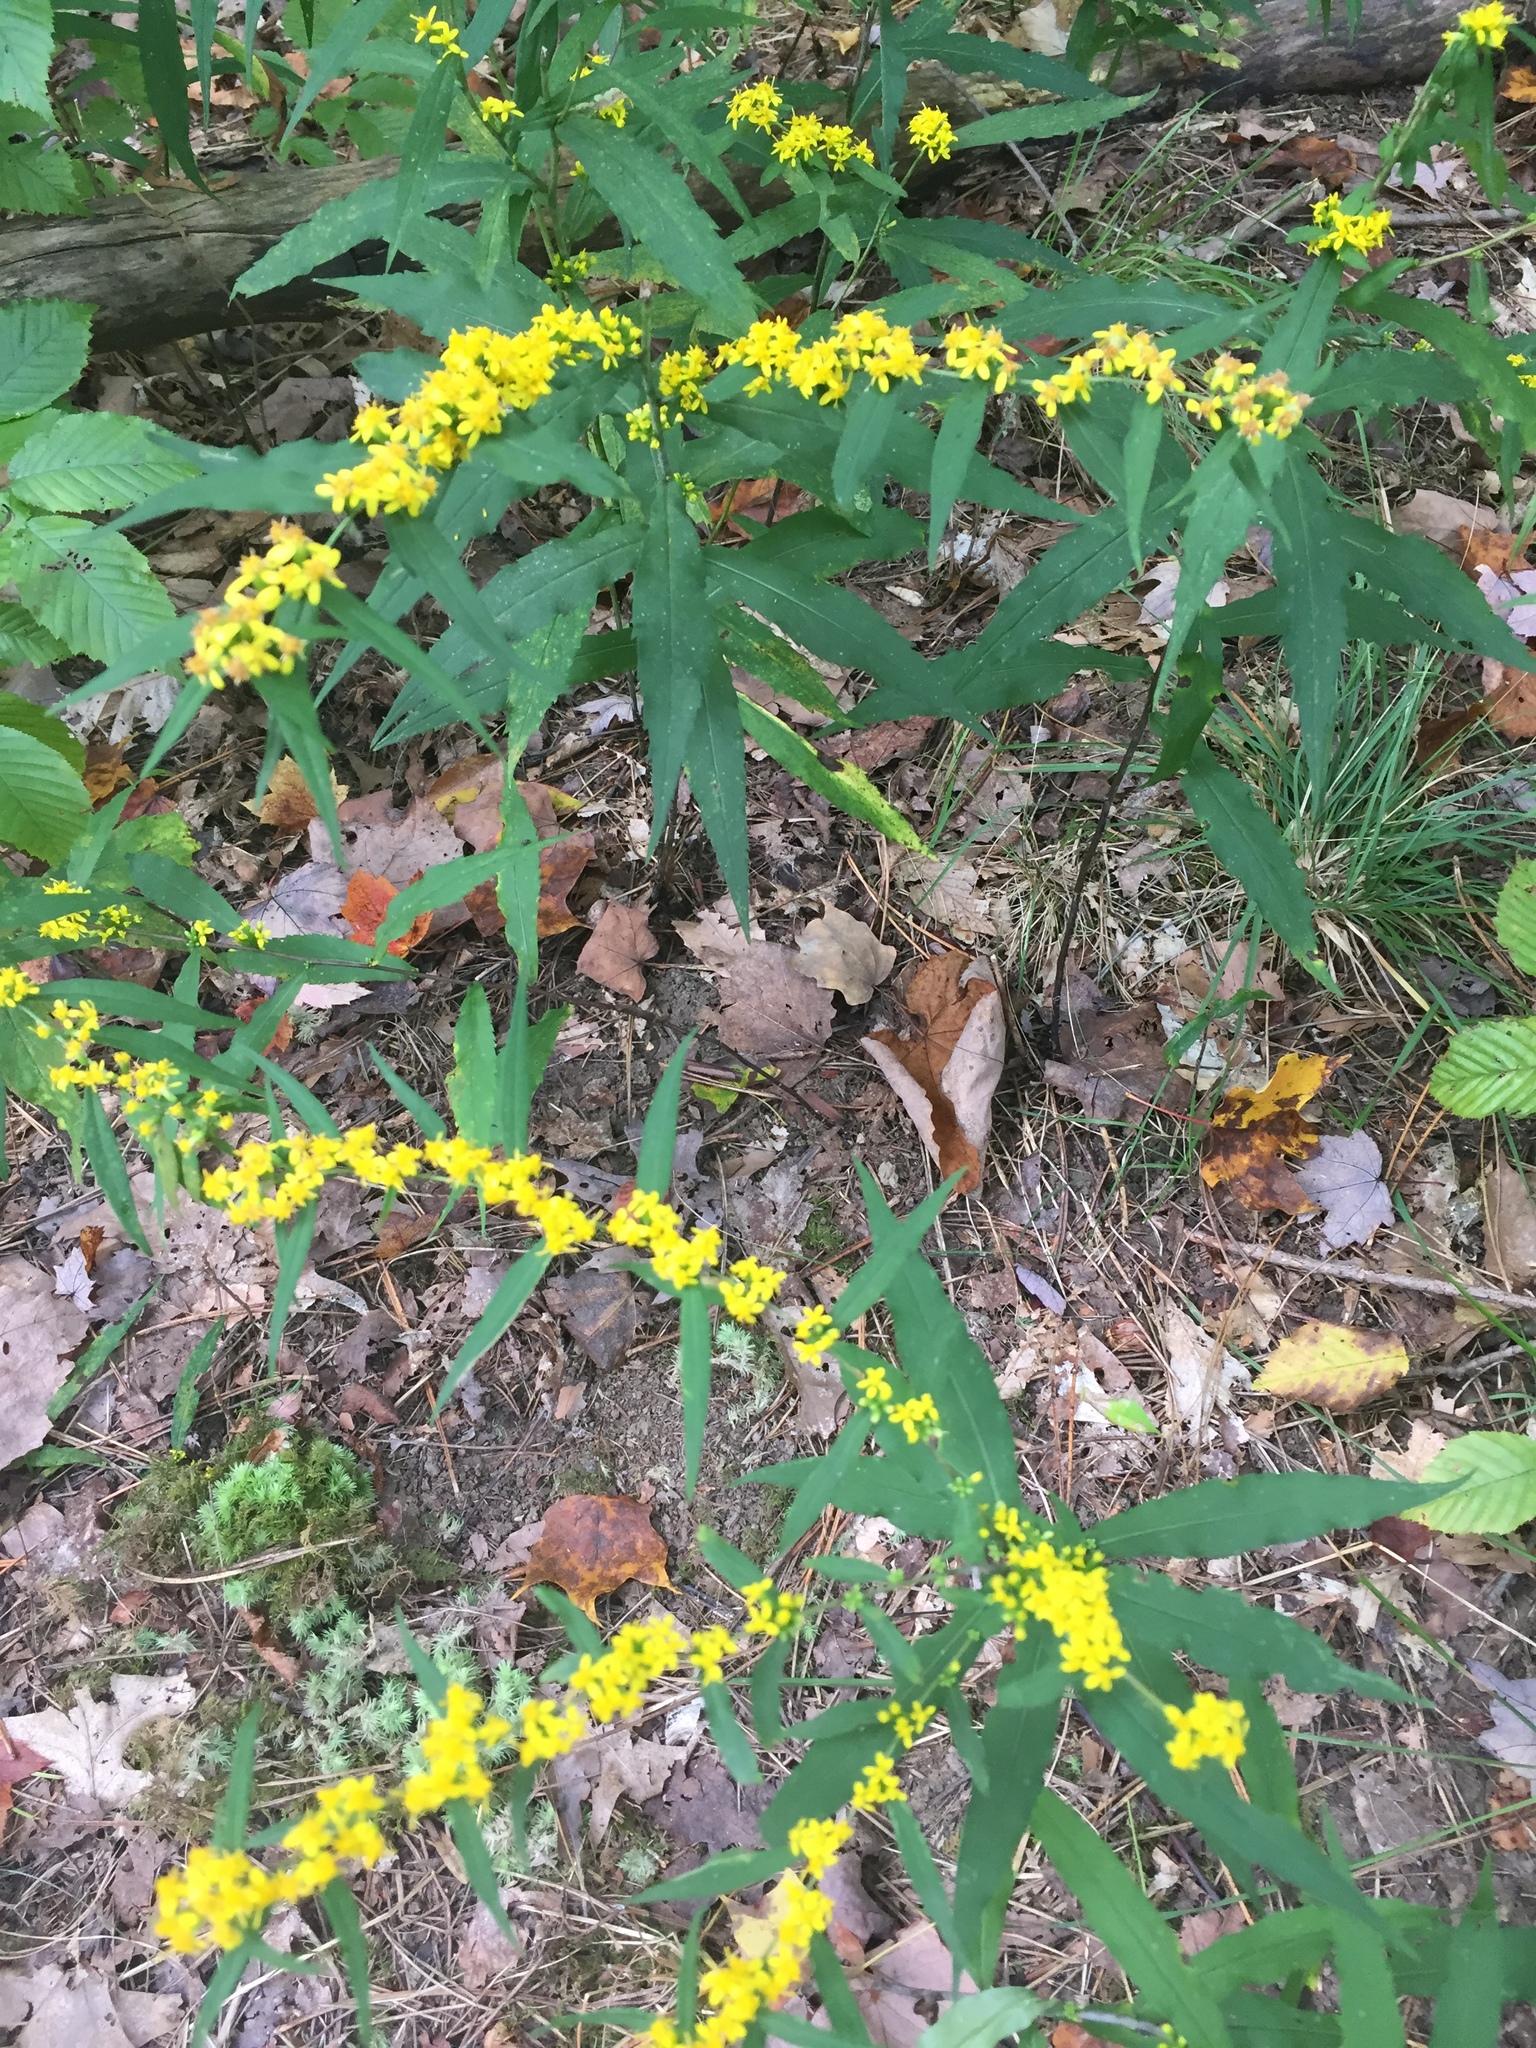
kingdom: Plantae
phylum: Tracheophyta
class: Magnoliopsida
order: Asterales
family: Asteraceae
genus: Solidago
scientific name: Solidago caesia
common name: Woodland goldenrod
